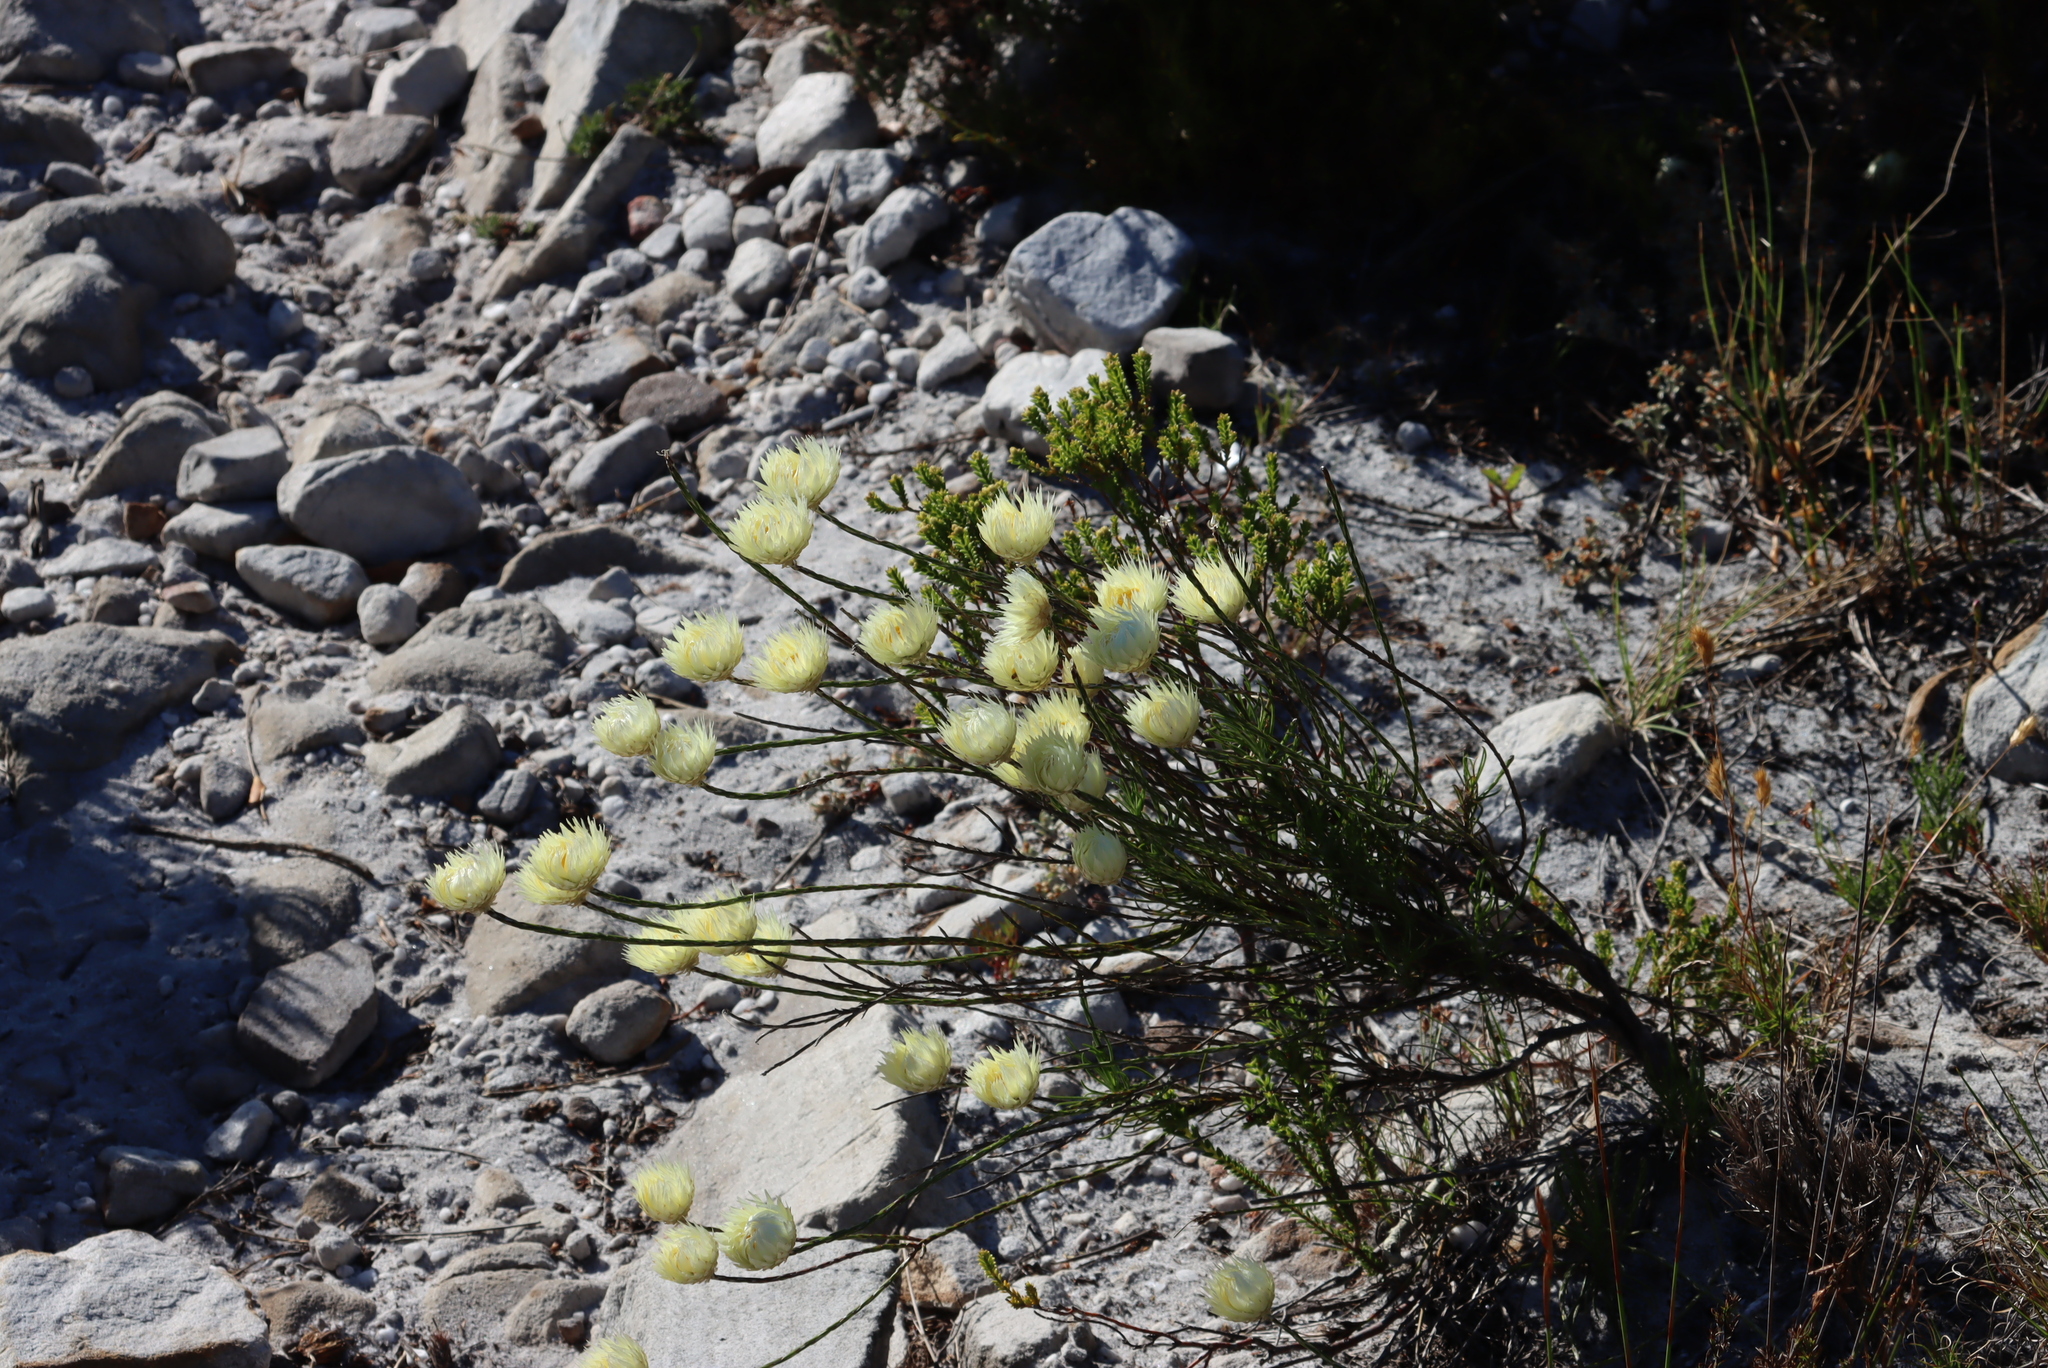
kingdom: Plantae
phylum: Tracheophyta
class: Magnoliopsida
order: Asterales
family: Asteraceae
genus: Edmondia
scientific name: Edmondia sesamoides
